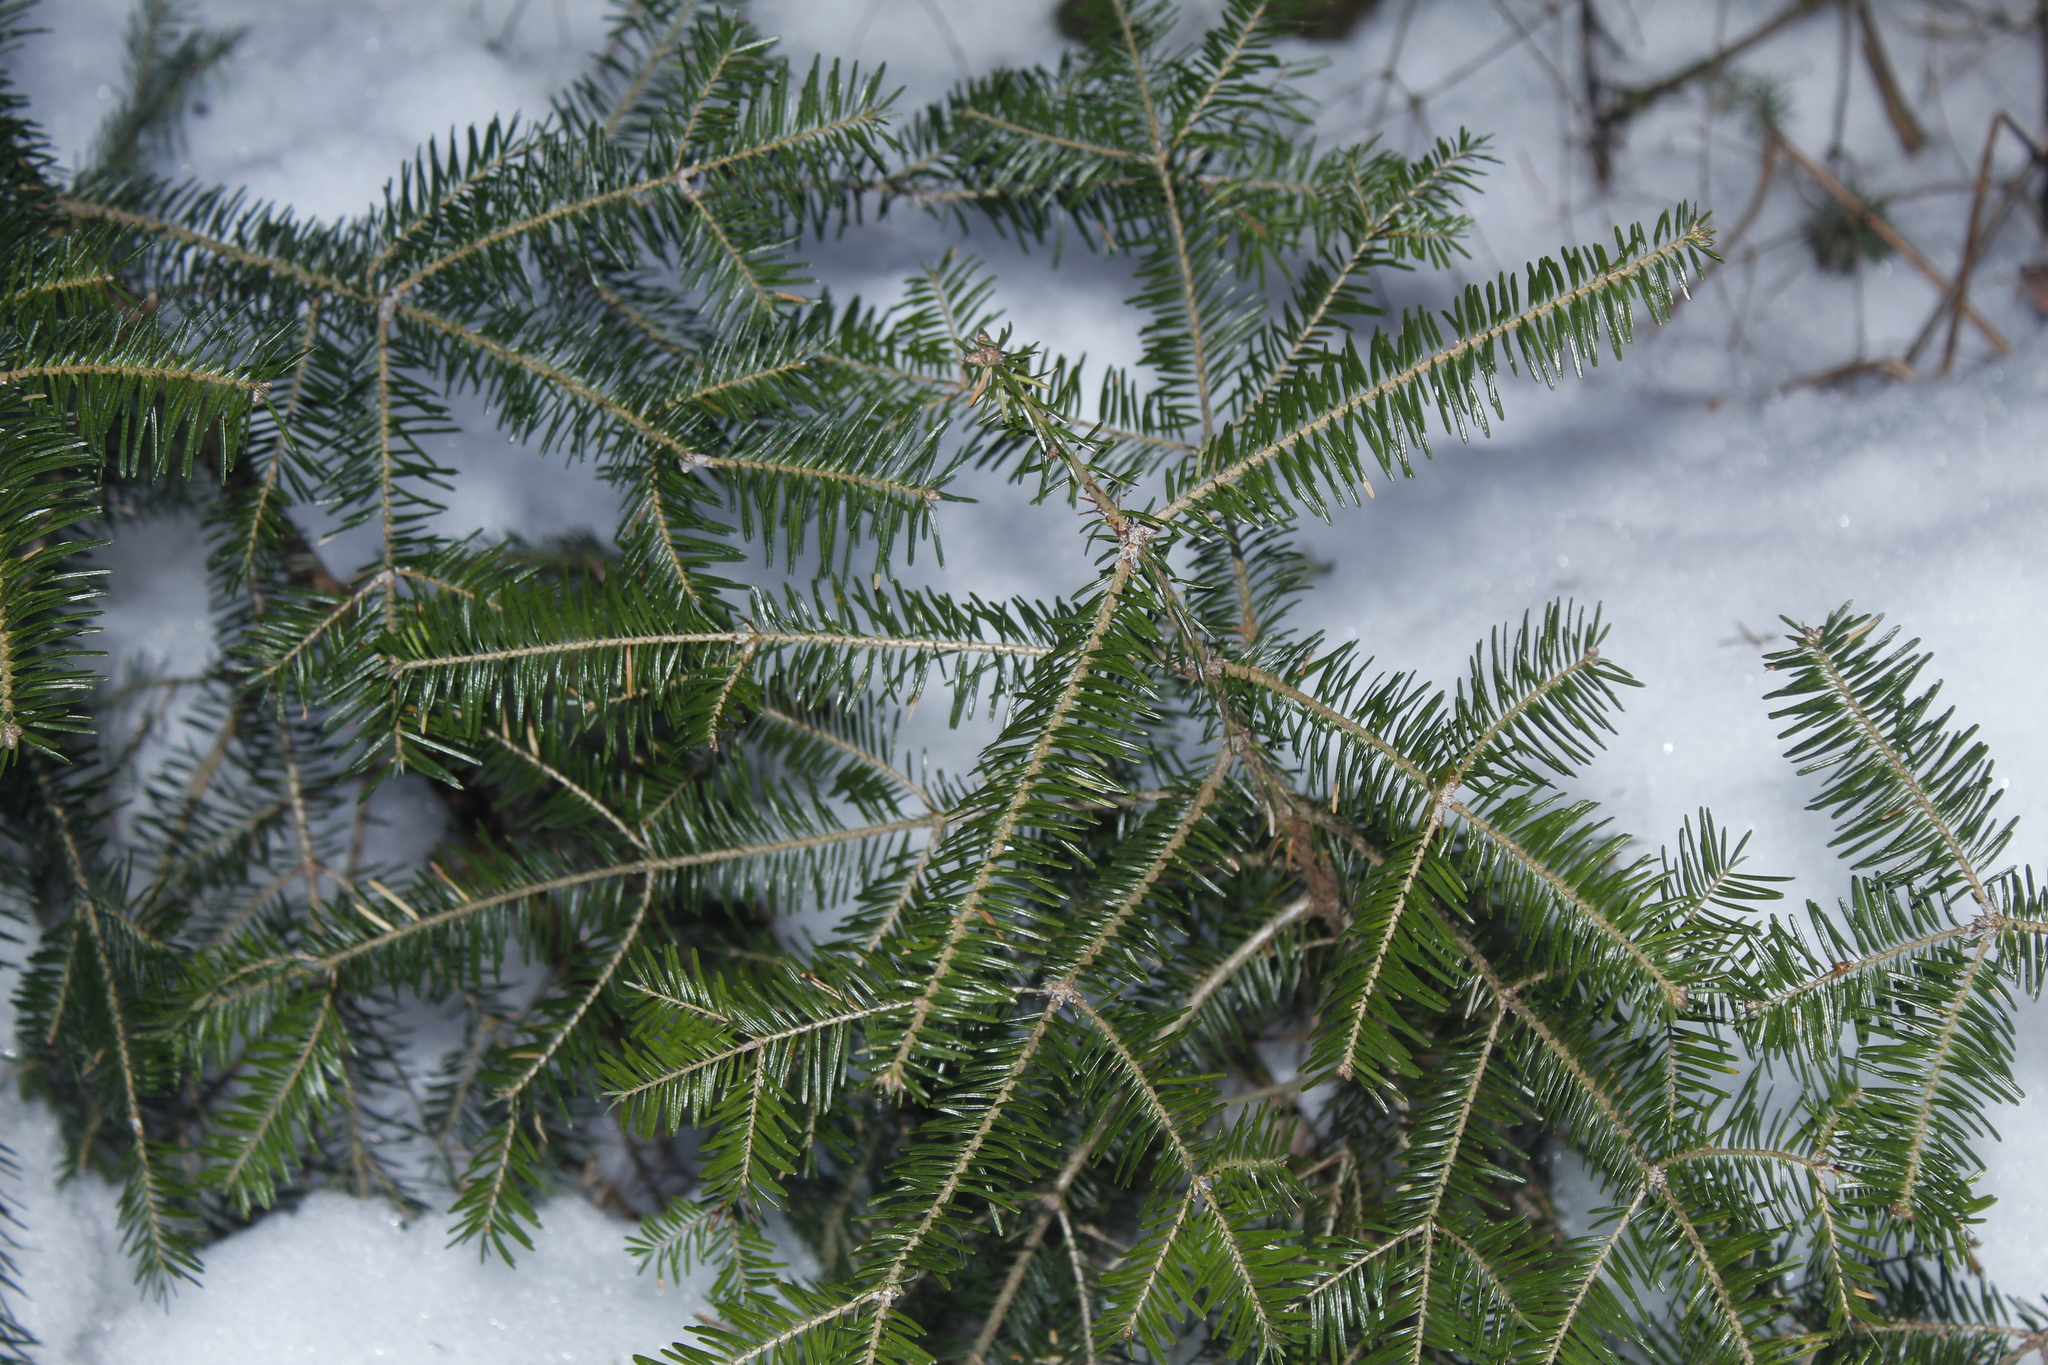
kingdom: Plantae
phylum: Tracheophyta
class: Pinopsida
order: Pinales
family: Pinaceae
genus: Abies
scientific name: Abies balsamea
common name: Balsam fir
